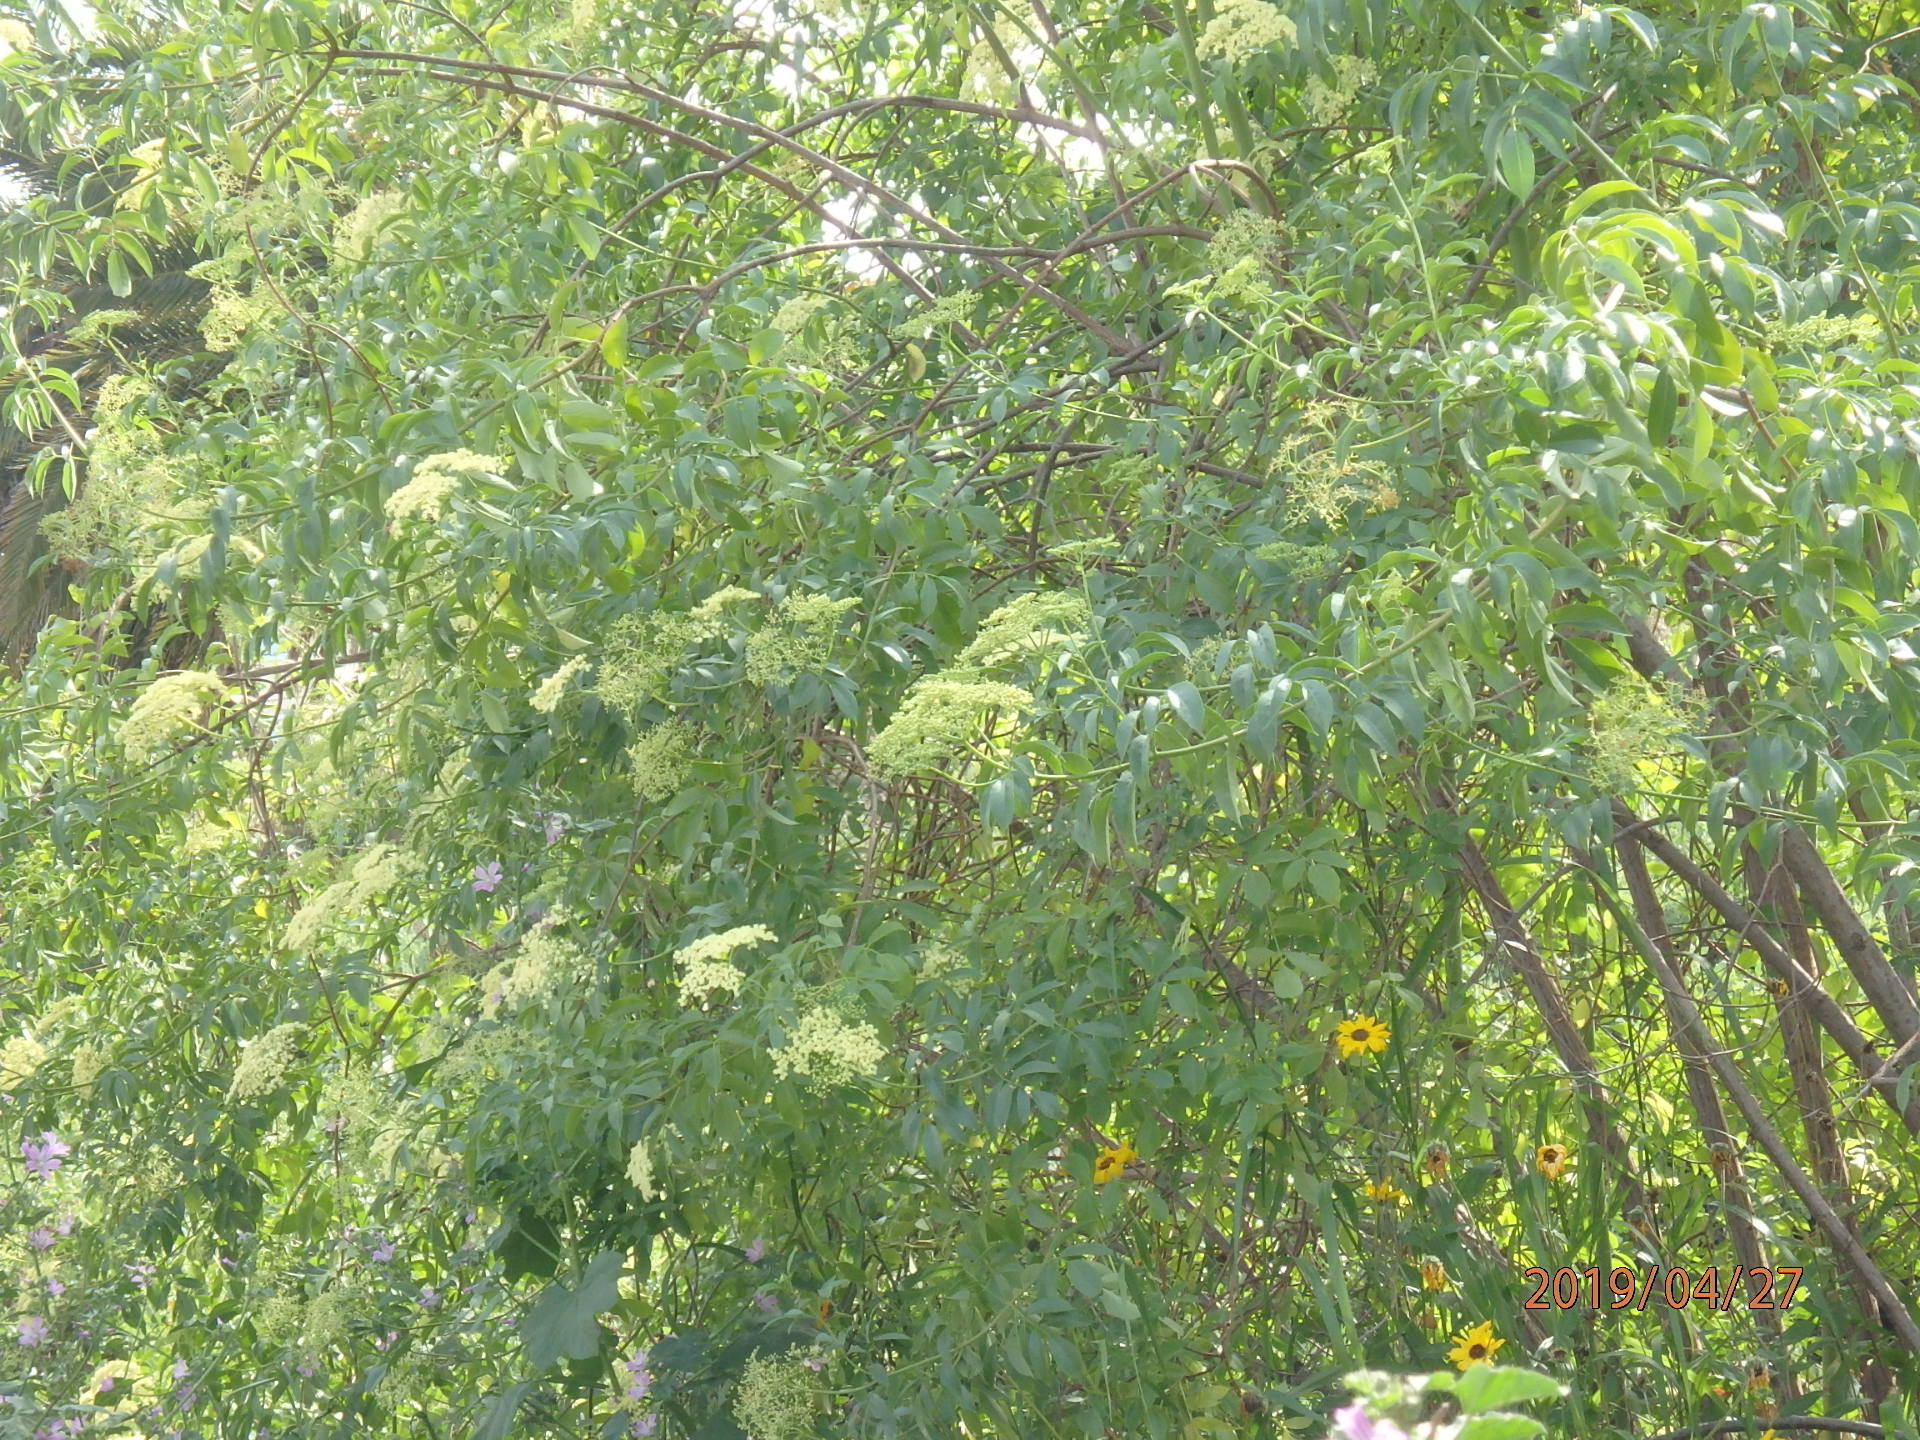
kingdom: Plantae
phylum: Tracheophyta
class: Magnoliopsida
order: Dipsacales
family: Viburnaceae
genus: Sambucus
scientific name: Sambucus cerulea
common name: Blue elder
